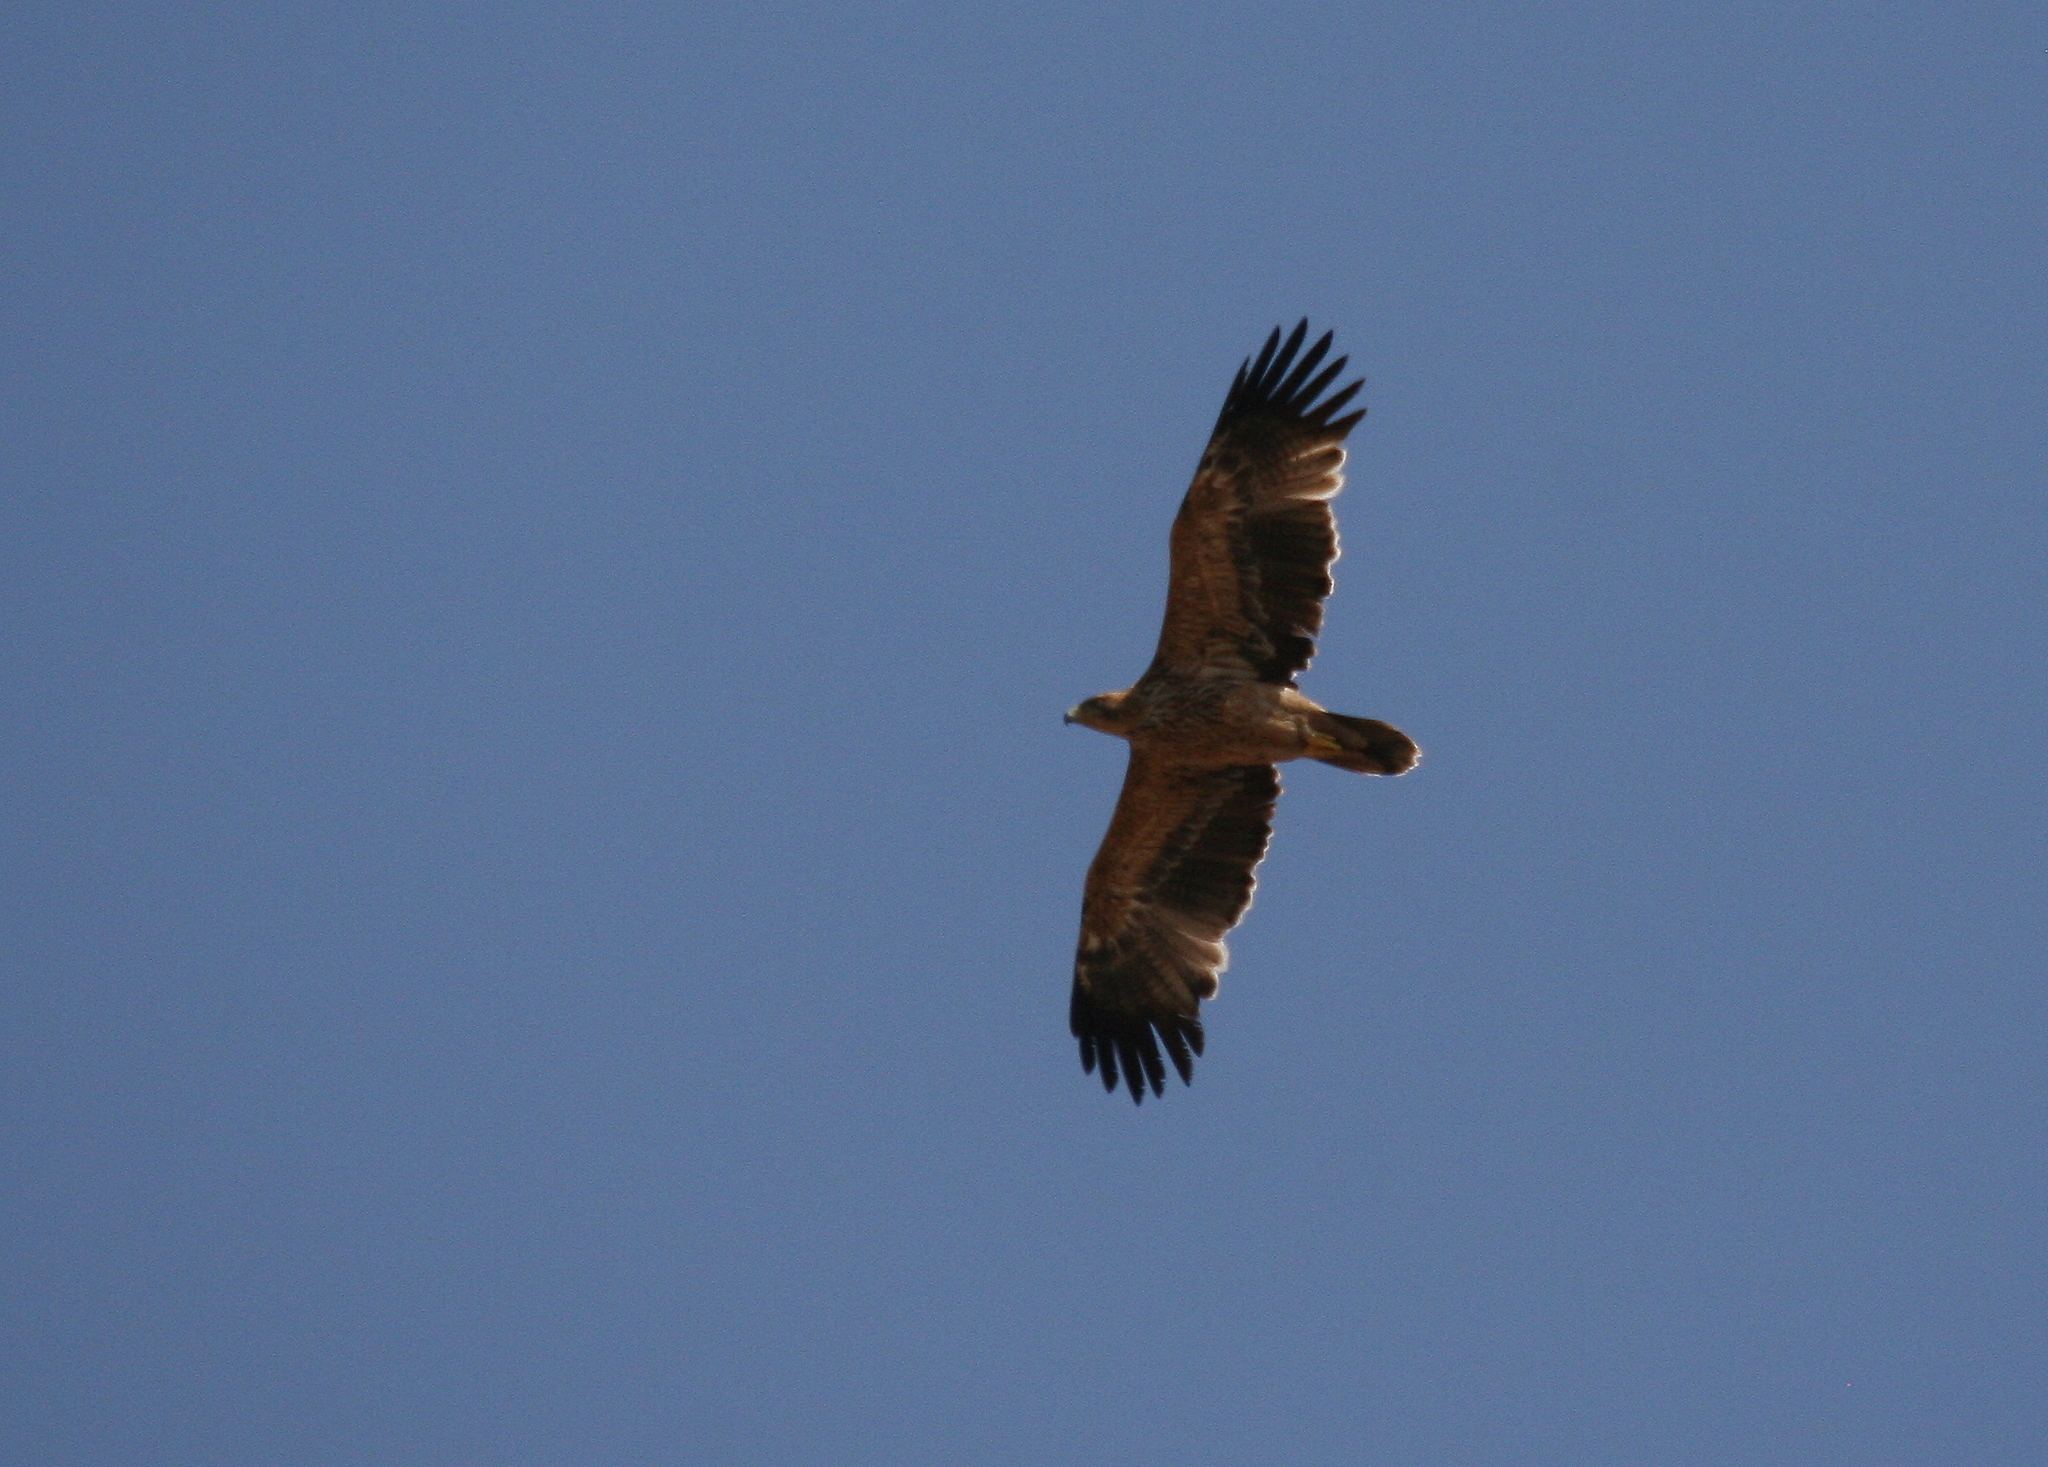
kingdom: Animalia
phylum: Chordata
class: Aves
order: Accipitriformes
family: Accipitridae
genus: Aquila
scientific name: Aquila heliaca
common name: Eastern imperial eagle
